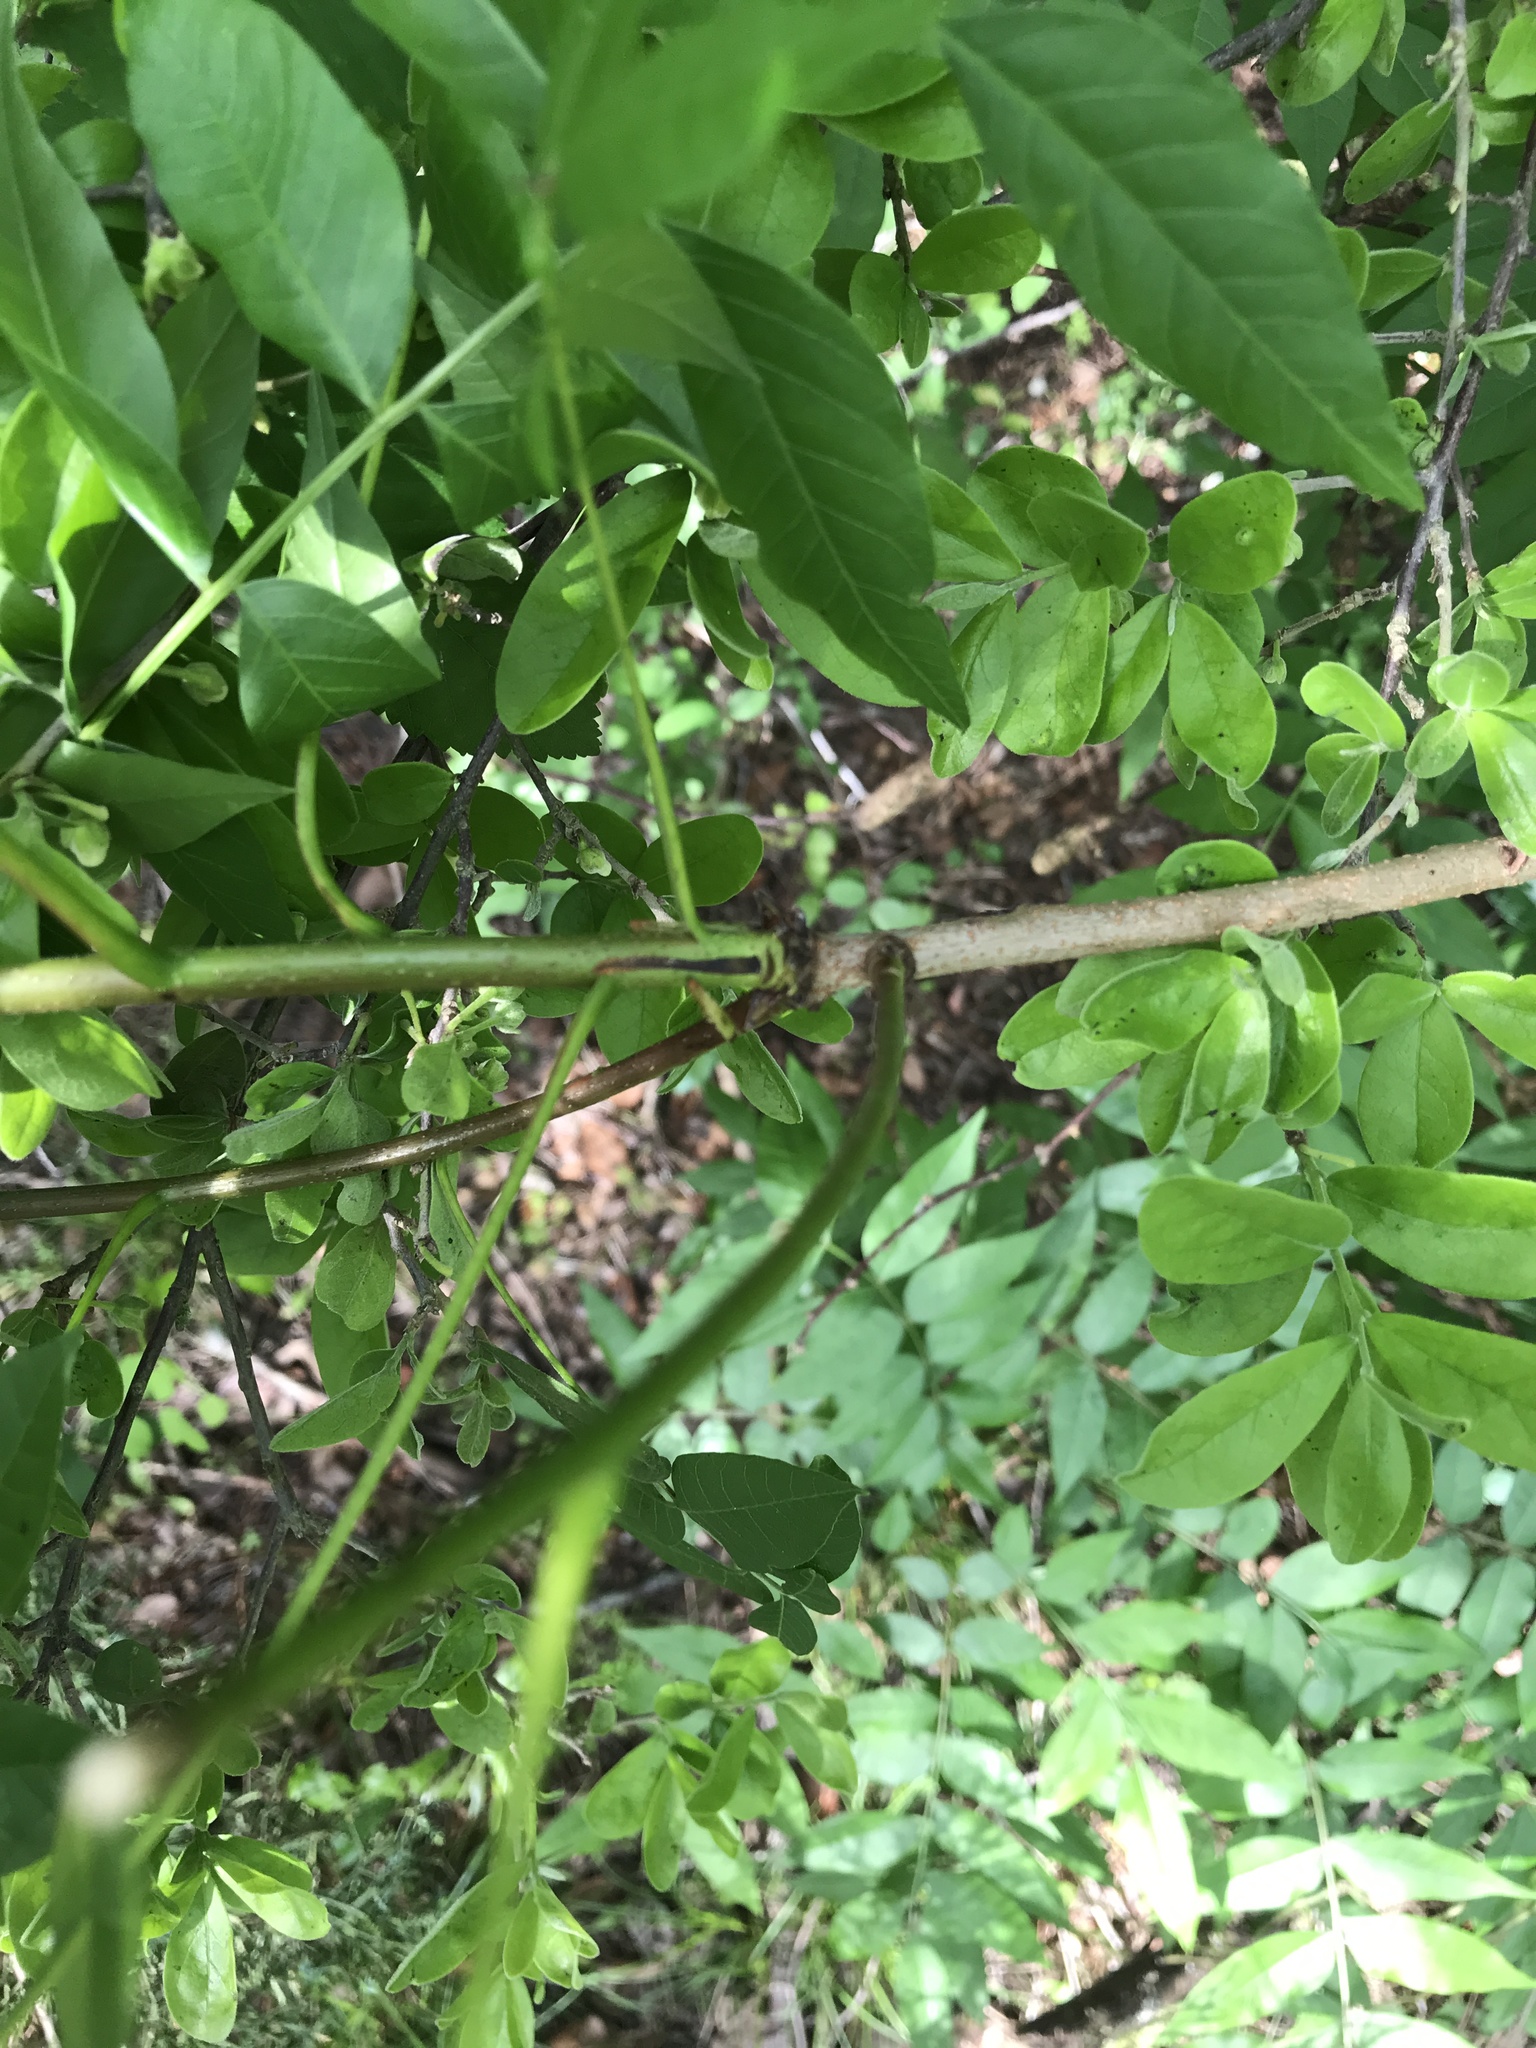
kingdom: Plantae
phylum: Tracheophyta
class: Magnoliopsida
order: Sapindales
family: Anacardiaceae
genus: Pistacia
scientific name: Pistacia chinensis
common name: Chinese pistache
